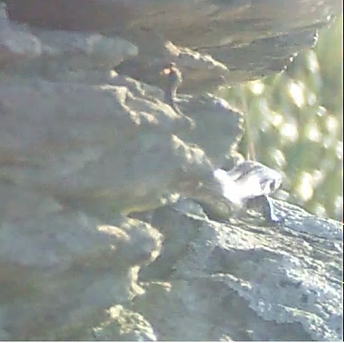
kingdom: Animalia
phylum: Chordata
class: Squamata
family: Scincidae
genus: Oligosoma
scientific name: Oligosoma polychroma
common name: Common new zealand skink
